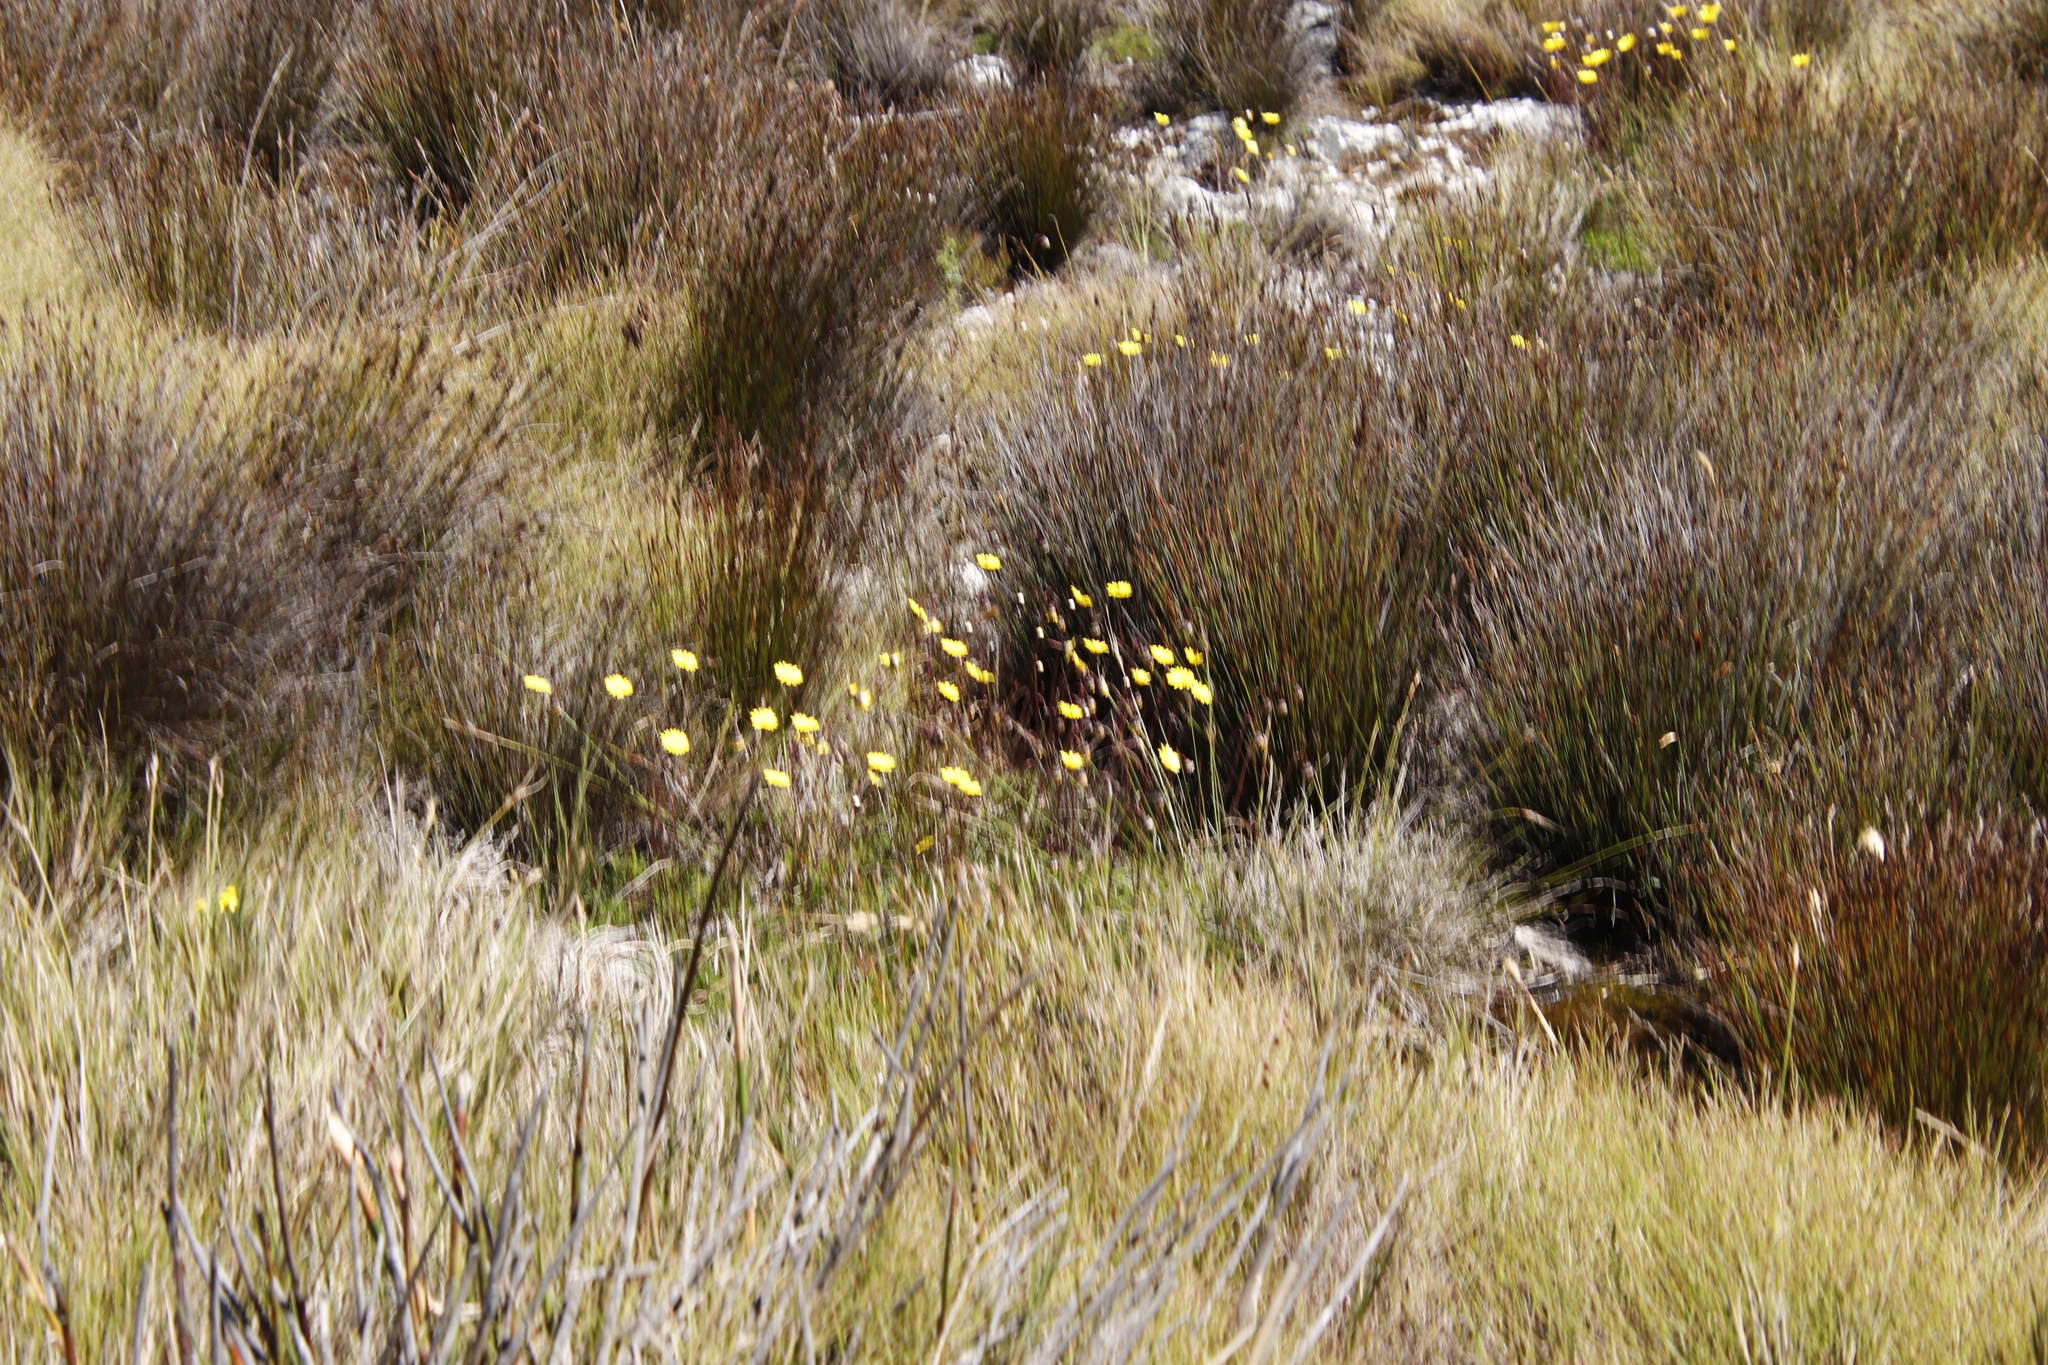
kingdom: Plantae
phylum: Tracheophyta
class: Magnoliopsida
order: Asterales
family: Asteraceae
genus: Ursinia
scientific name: Ursinia nudicaulis
